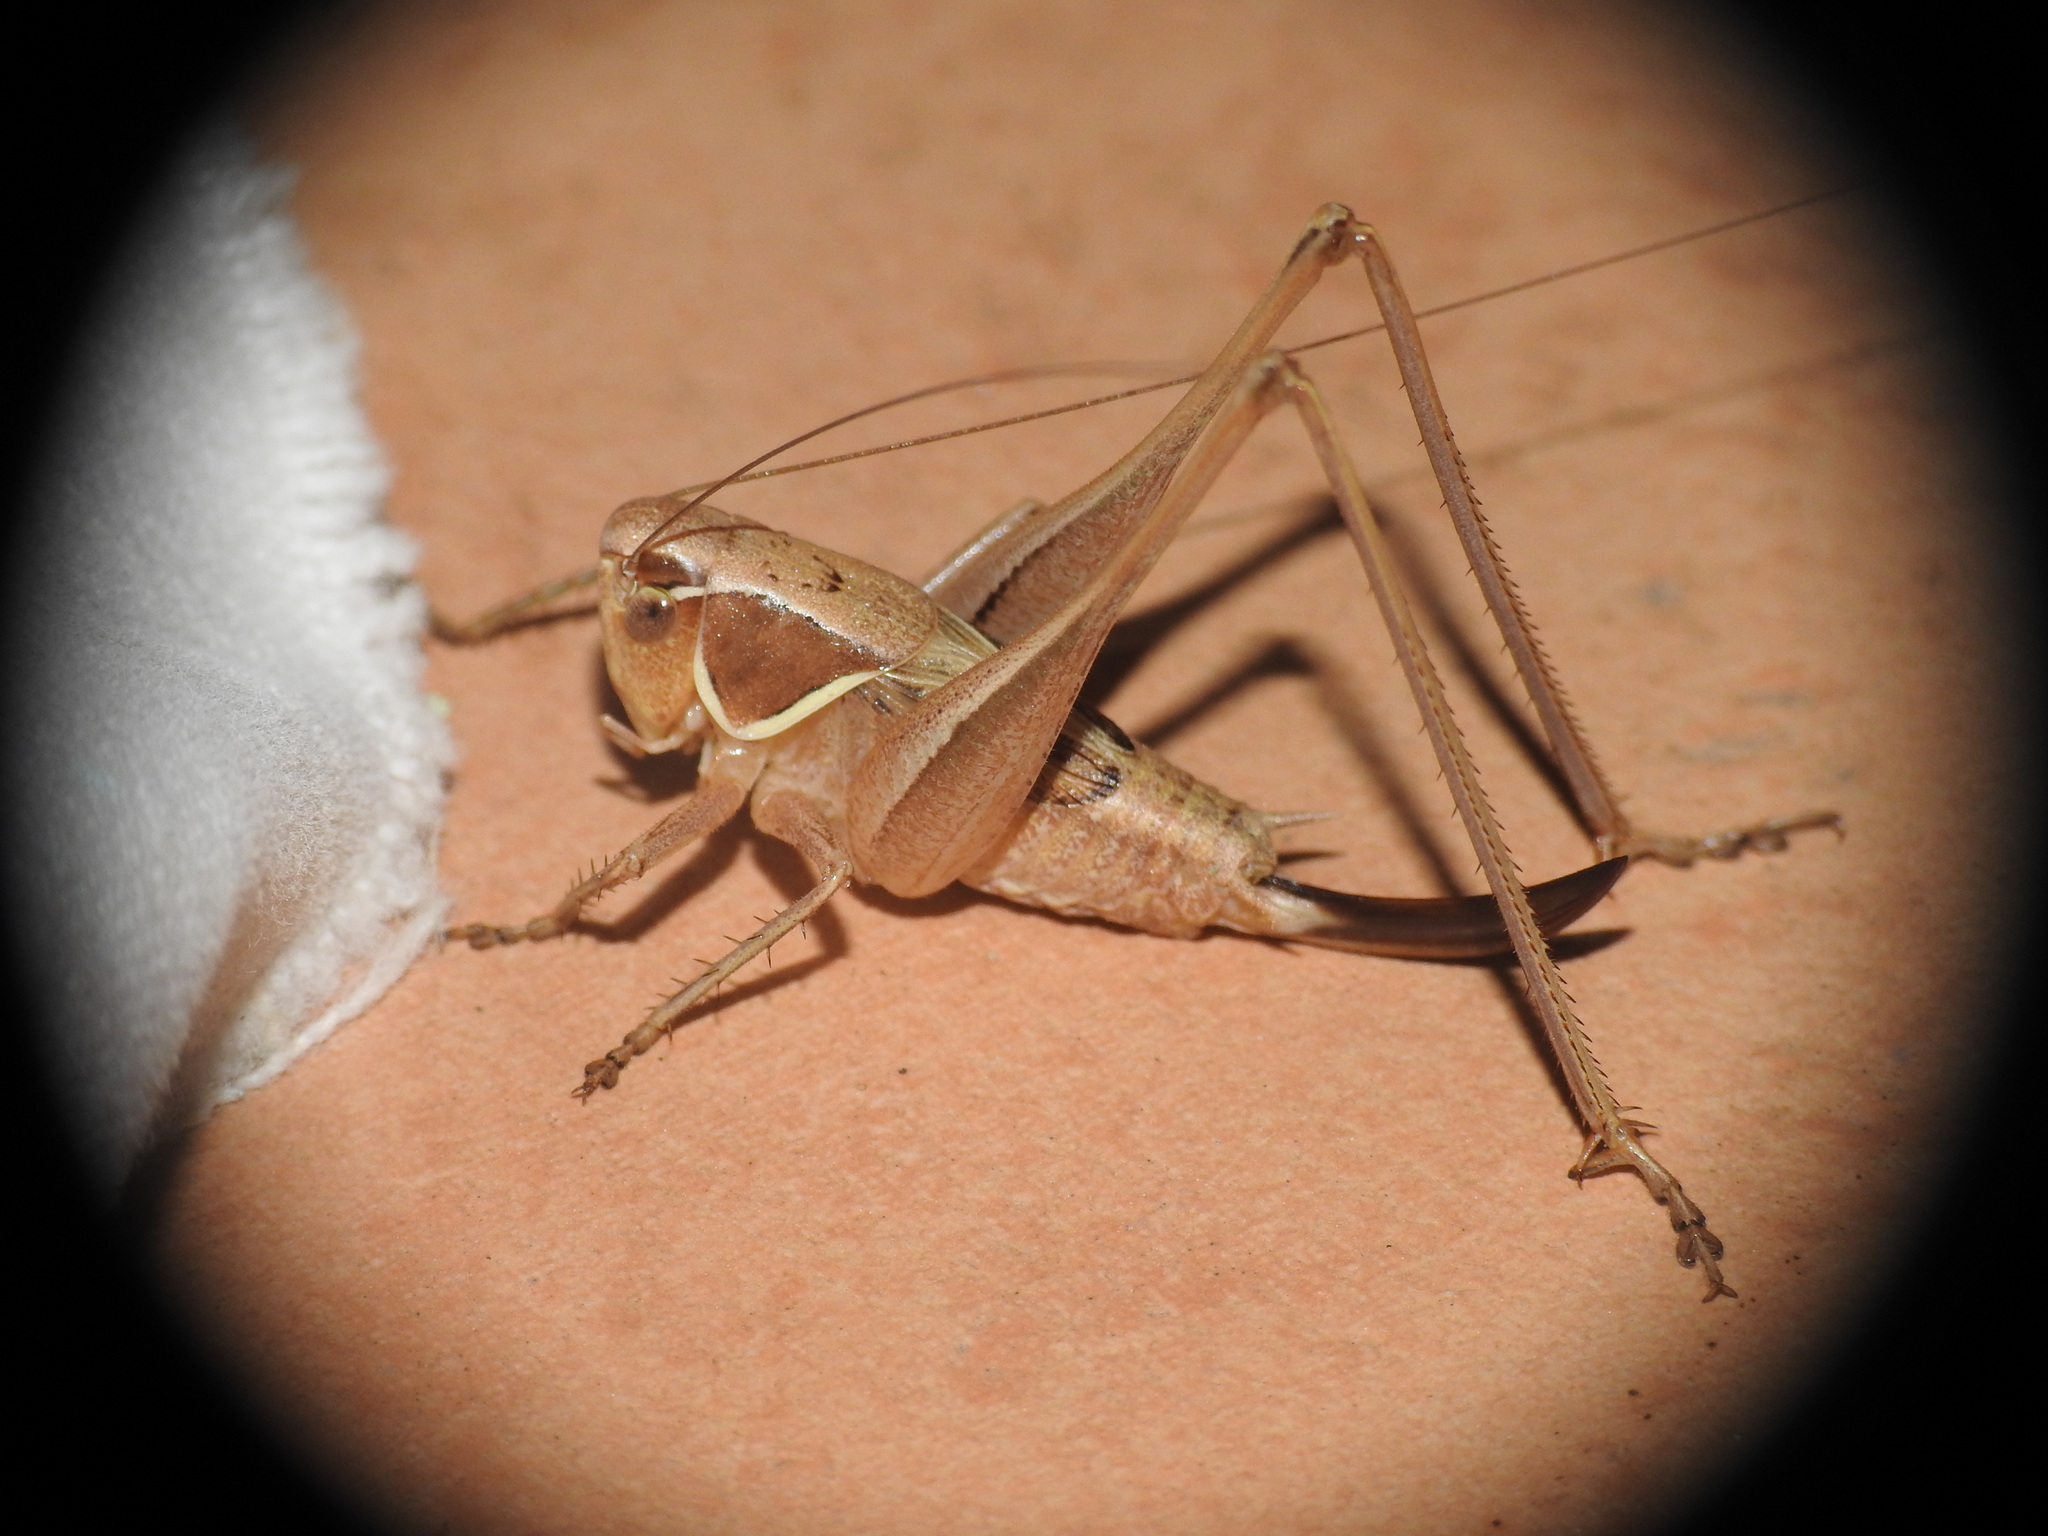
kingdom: Animalia
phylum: Arthropoda
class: Insecta
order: Orthoptera
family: Tettigoniidae
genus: Sepiana
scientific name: Sepiana sepium
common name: Sepia bush-cricket
